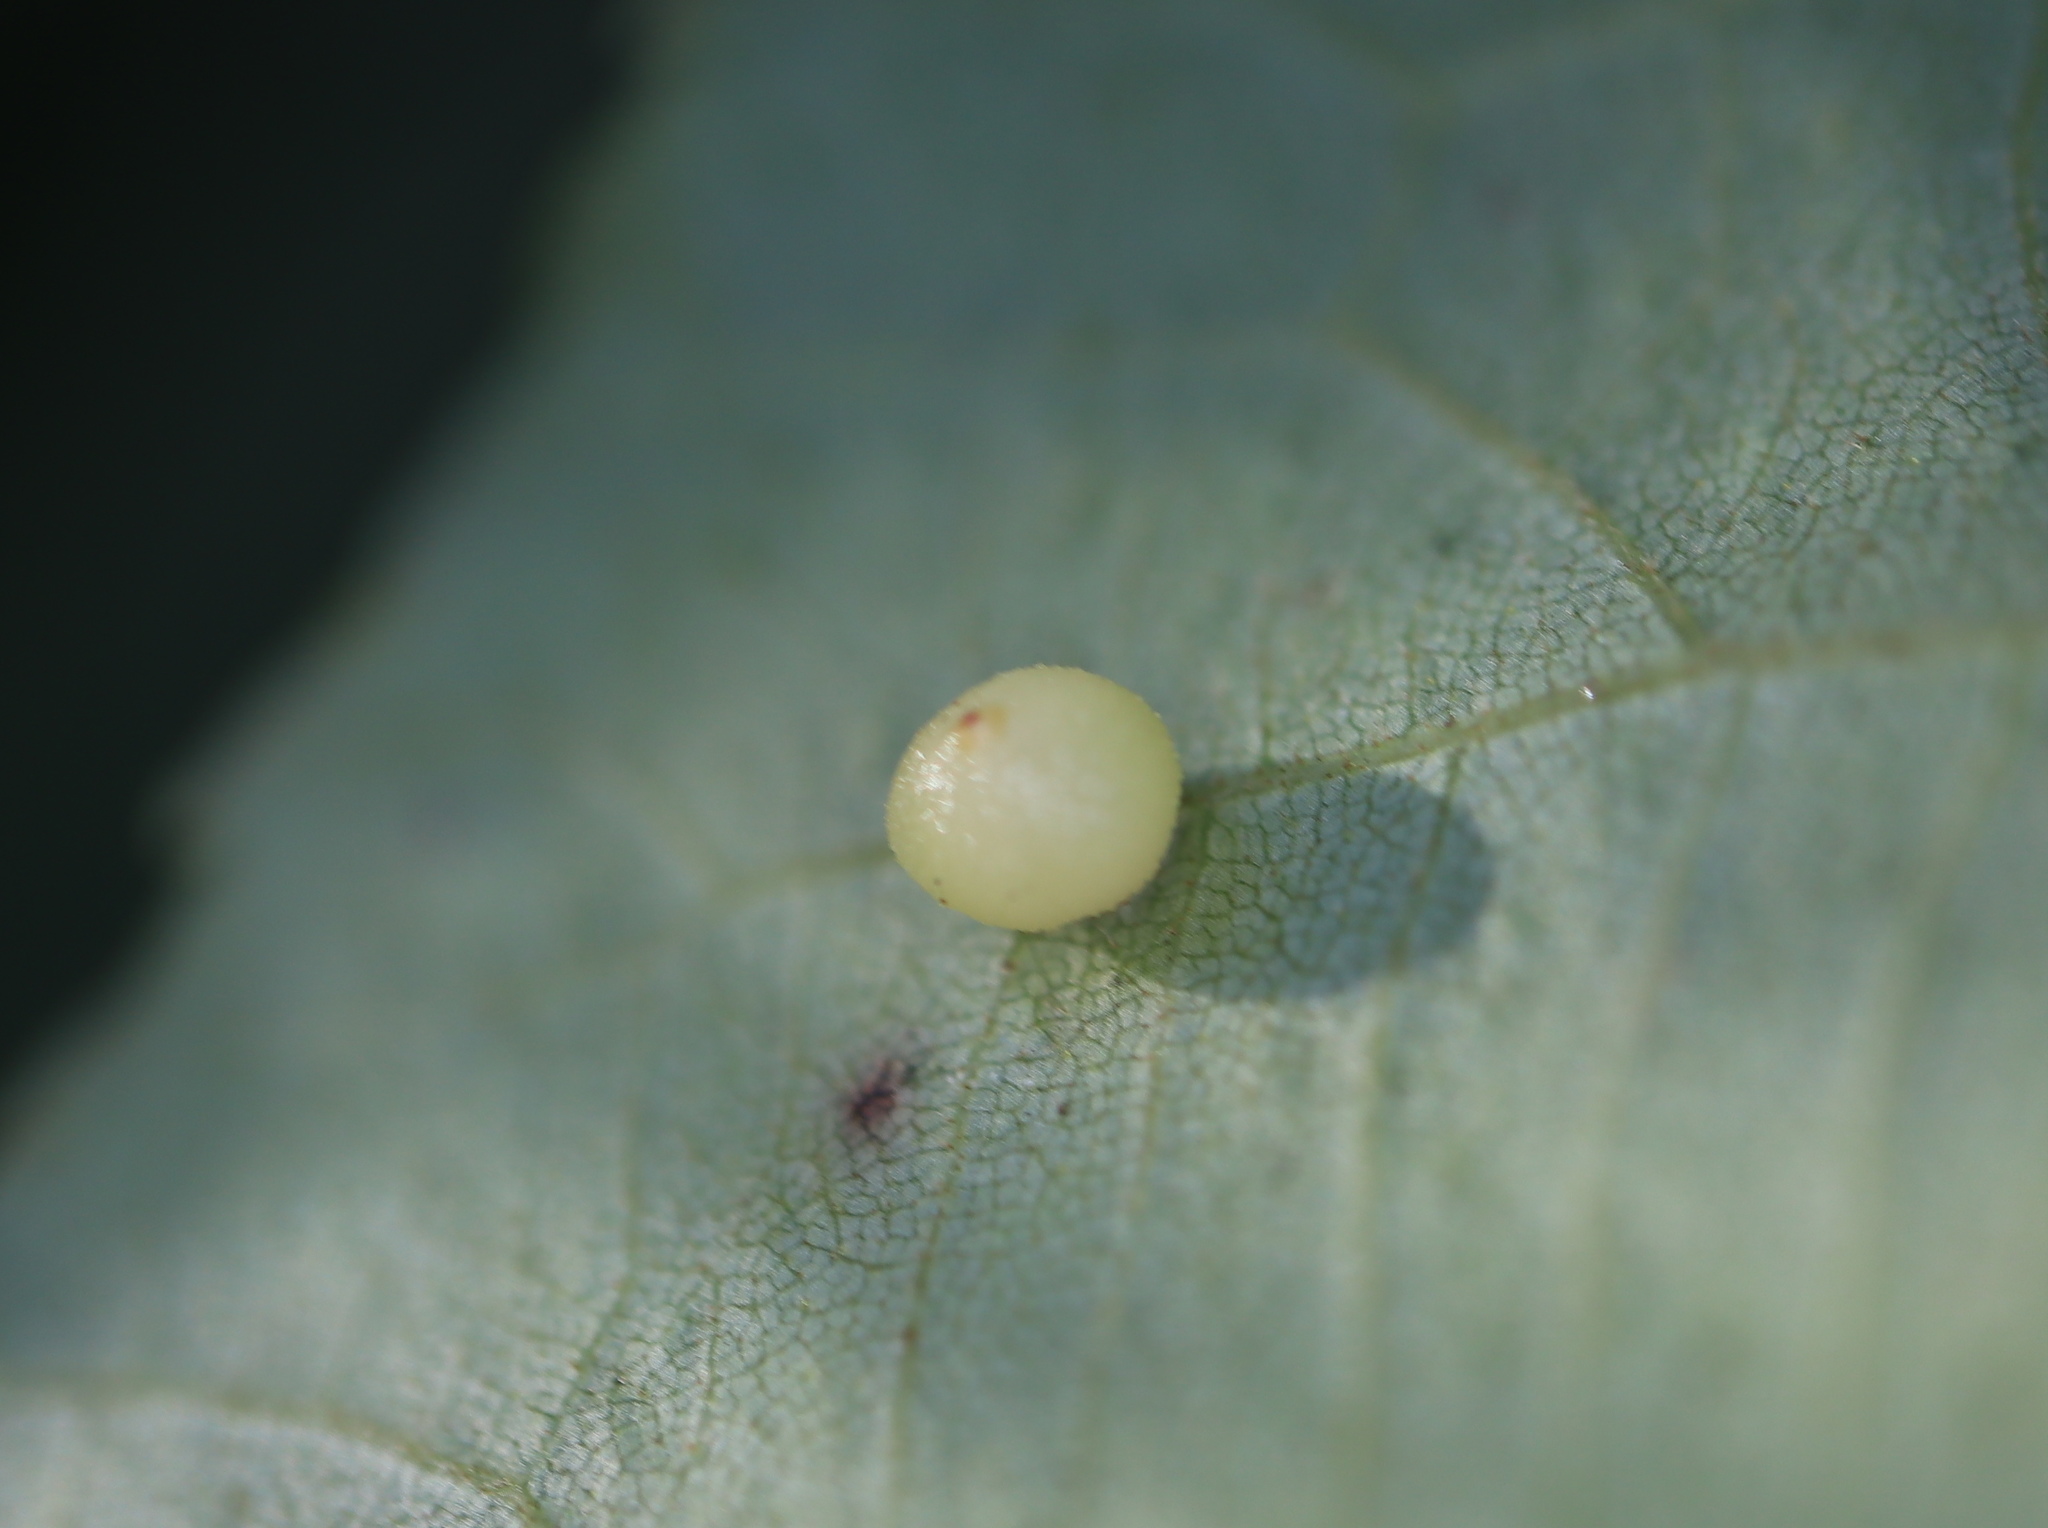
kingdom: Animalia
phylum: Arthropoda
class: Insecta
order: Diptera
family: Cecidomyiidae
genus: Caryomyia
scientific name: Caryomyia caryae
